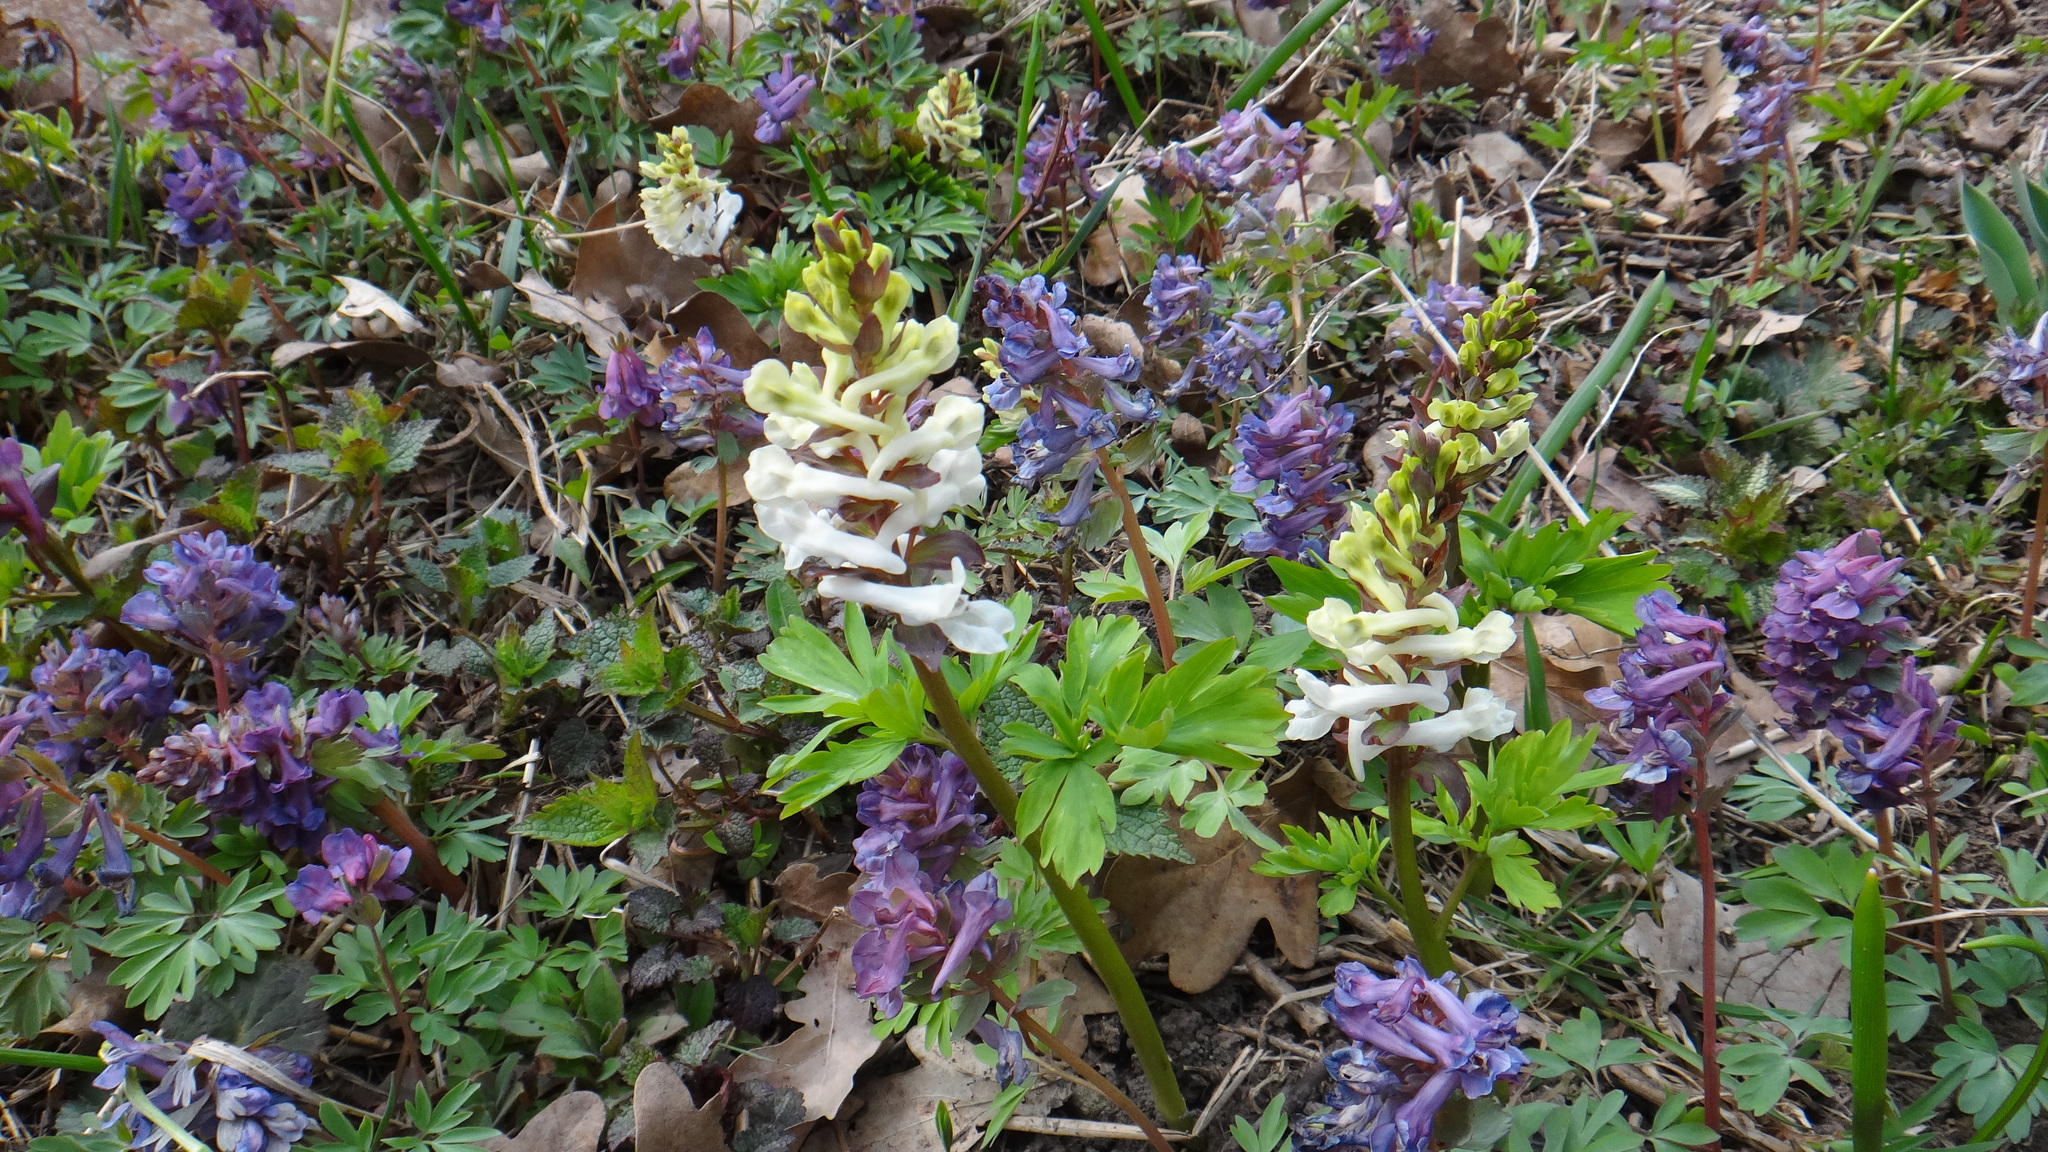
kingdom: Plantae
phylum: Tracheophyta
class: Magnoliopsida
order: Ranunculales
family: Papaveraceae
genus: Corydalis
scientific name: Corydalis cava
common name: Hollowroot
